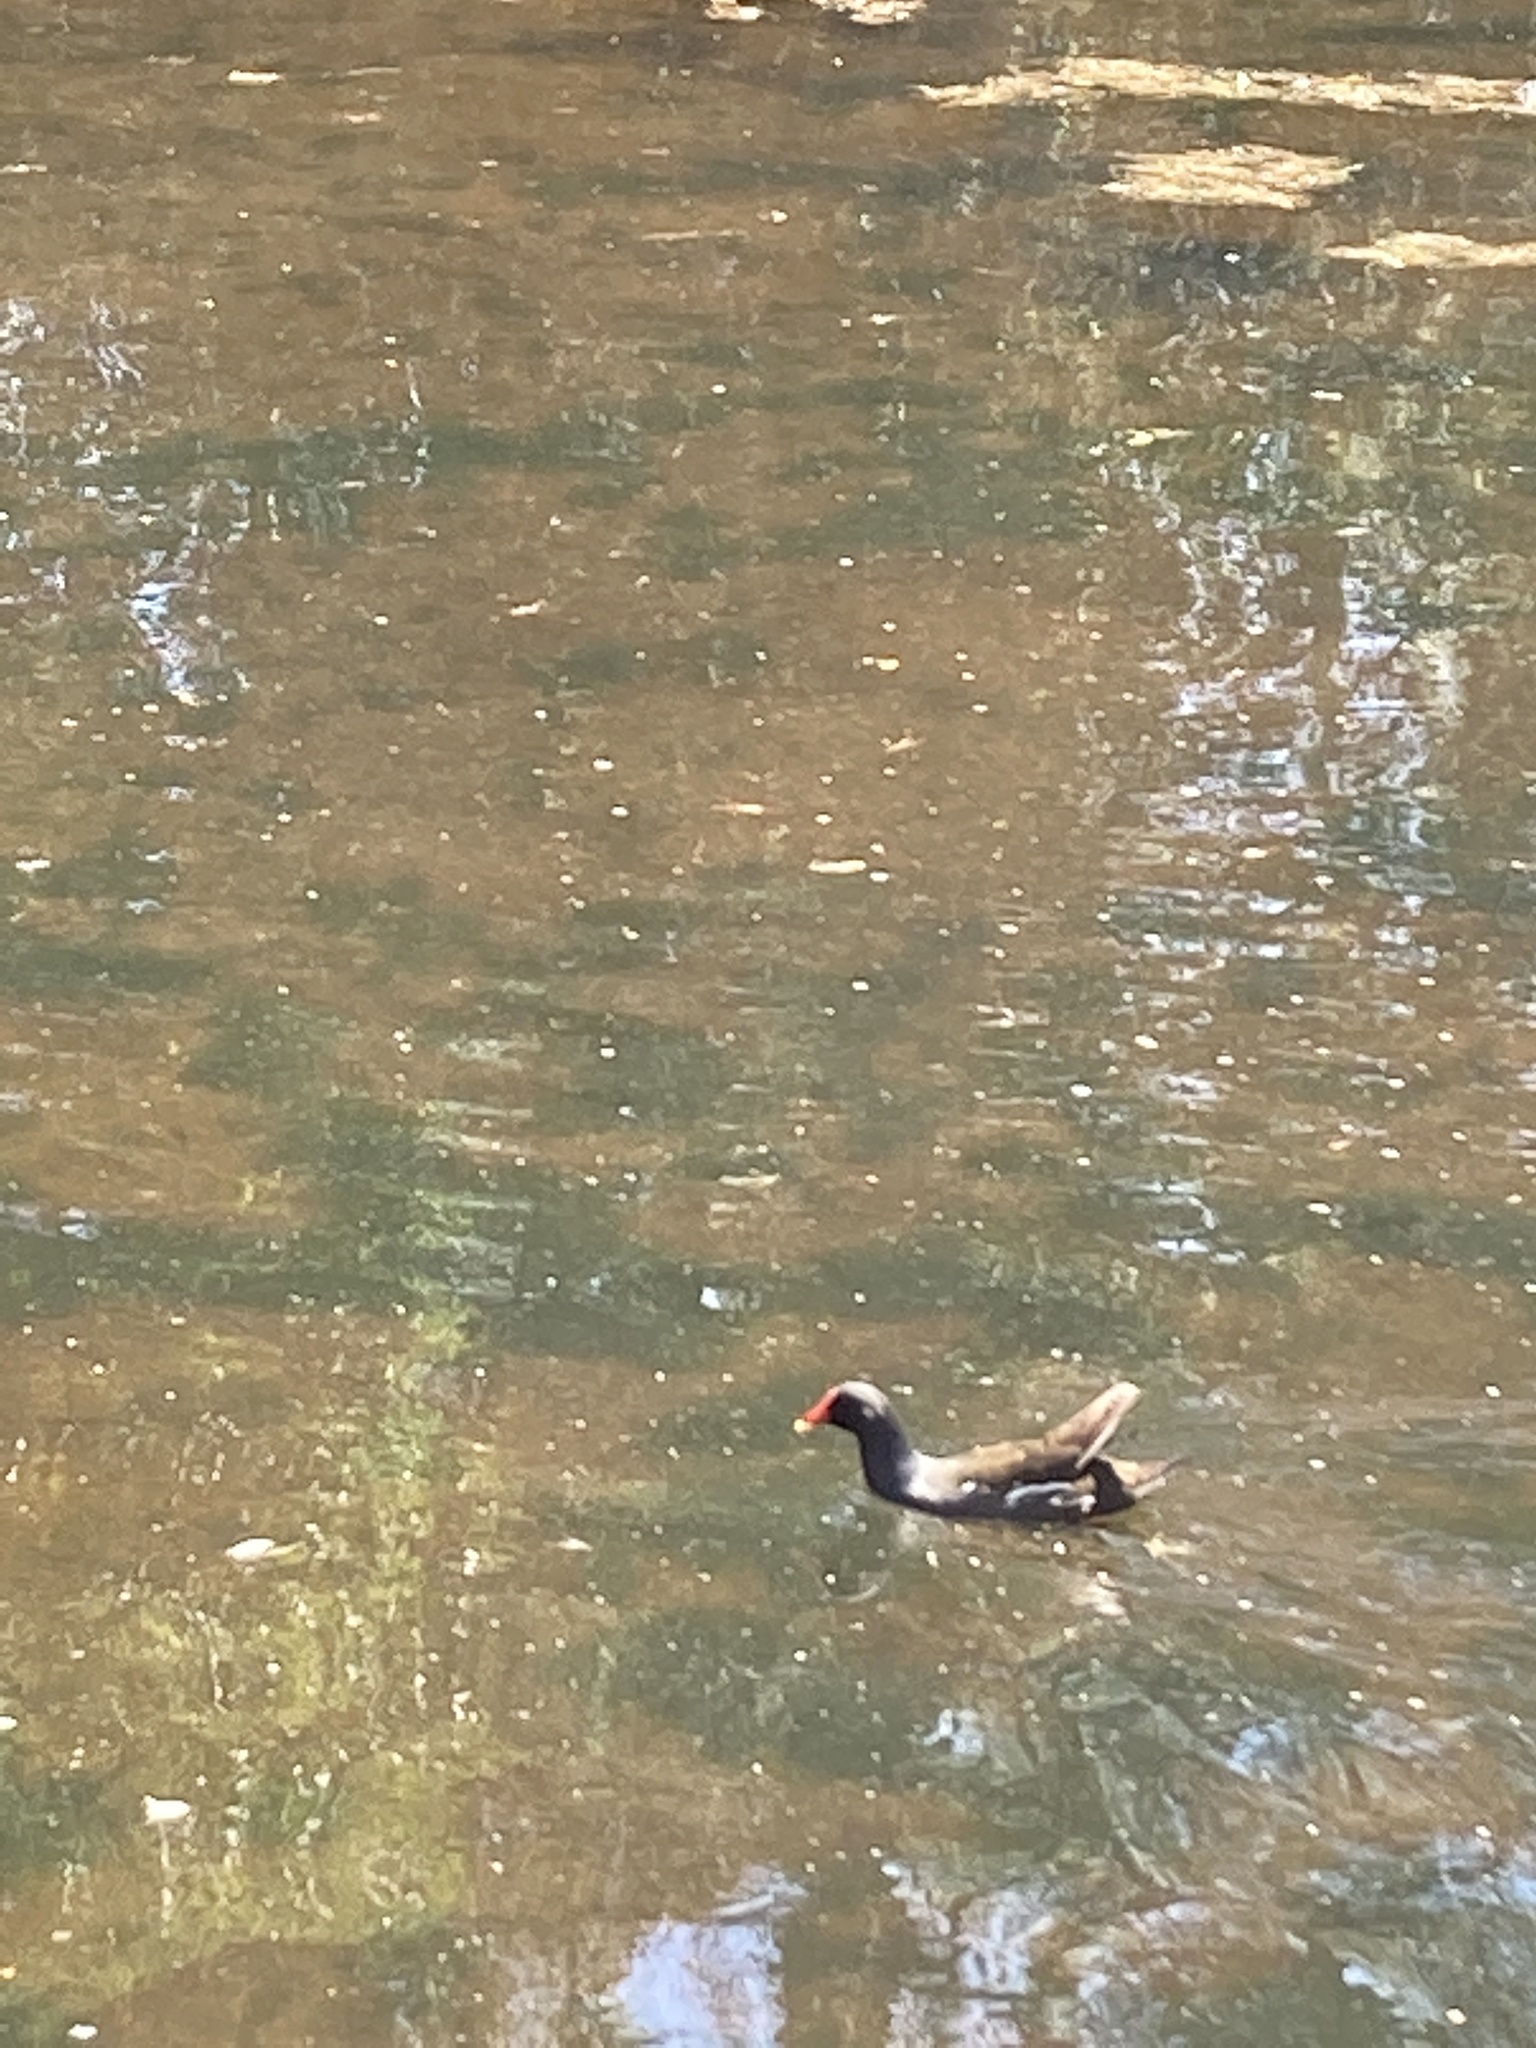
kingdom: Animalia
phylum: Chordata
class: Aves
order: Gruiformes
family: Rallidae
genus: Gallinula
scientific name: Gallinula chloropus
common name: Common moorhen
